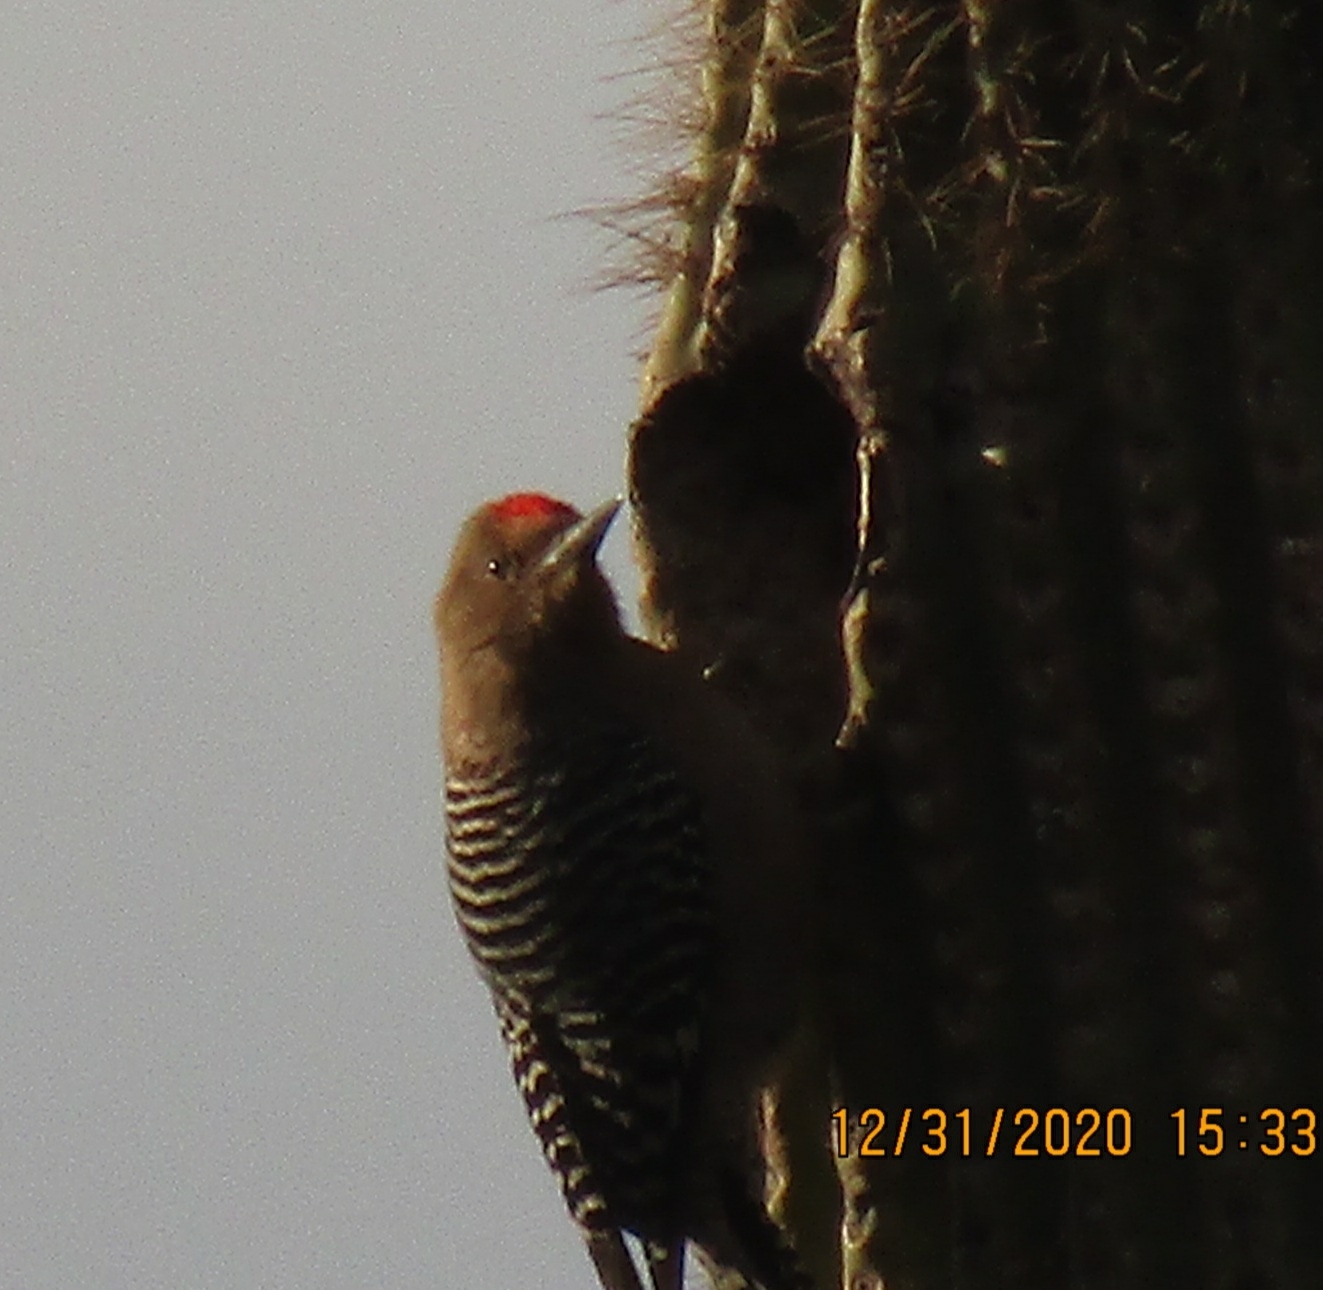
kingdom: Animalia
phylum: Chordata
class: Aves
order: Piciformes
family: Picidae
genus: Melanerpes
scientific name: Melanerpes uropygialis
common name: Gila woodpecker
